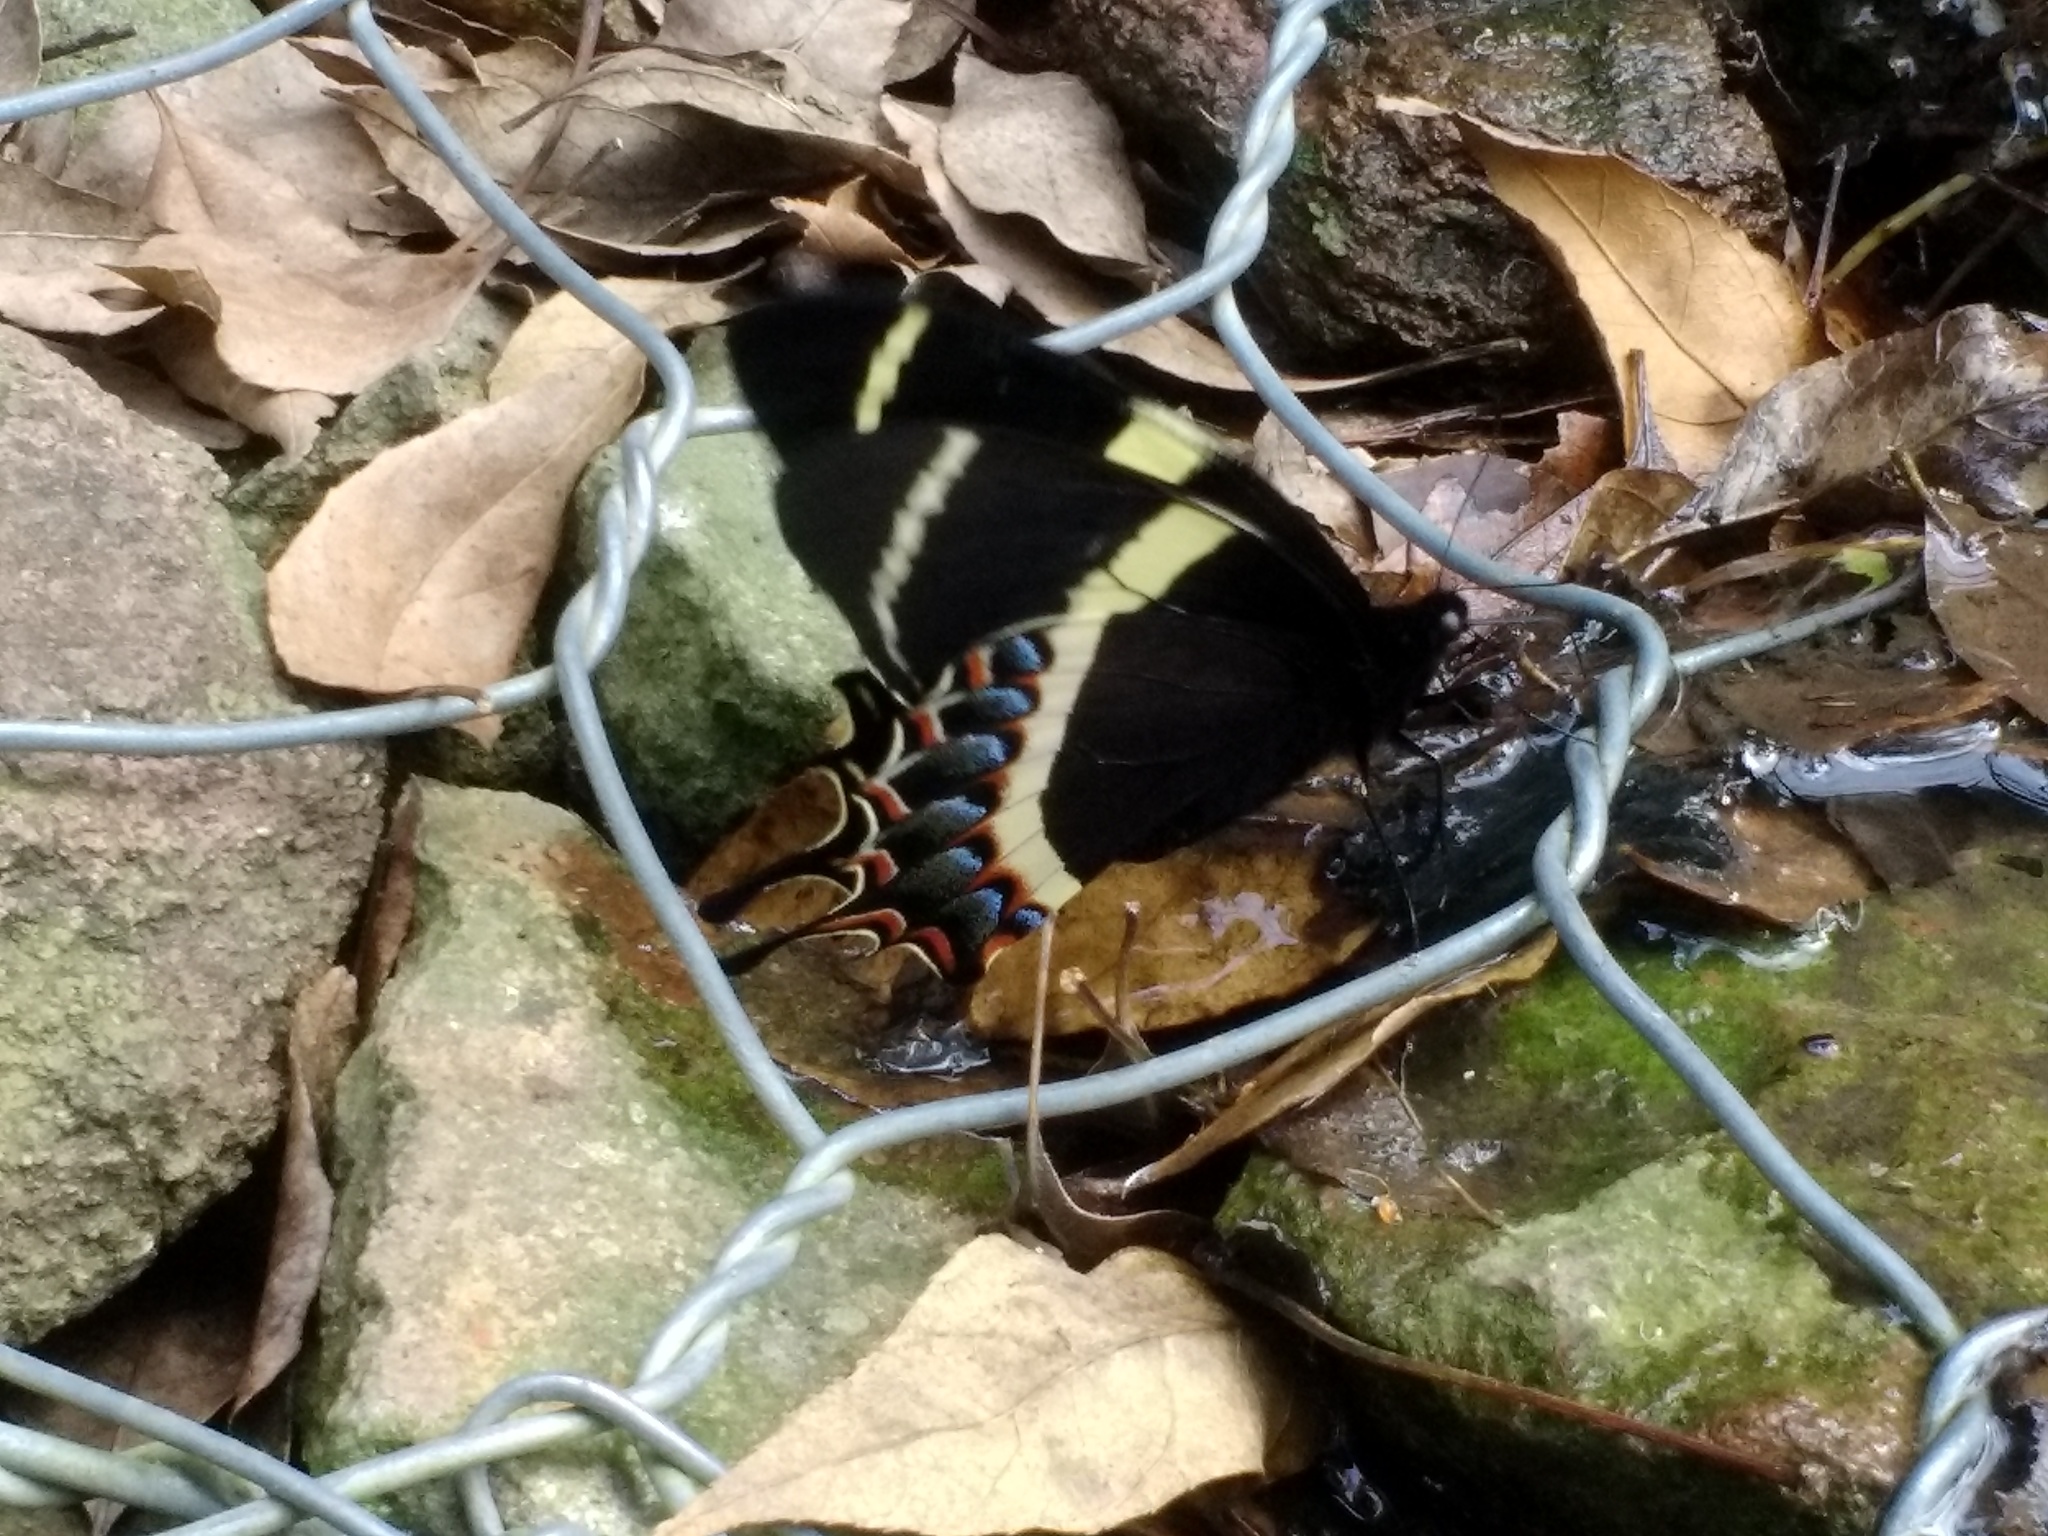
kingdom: Animalia
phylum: Arthropoda
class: Insecta
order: Lepidoptera
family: Papilionidae
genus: Papilio
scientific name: Papilio garamas
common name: Magnificent swallowtail
